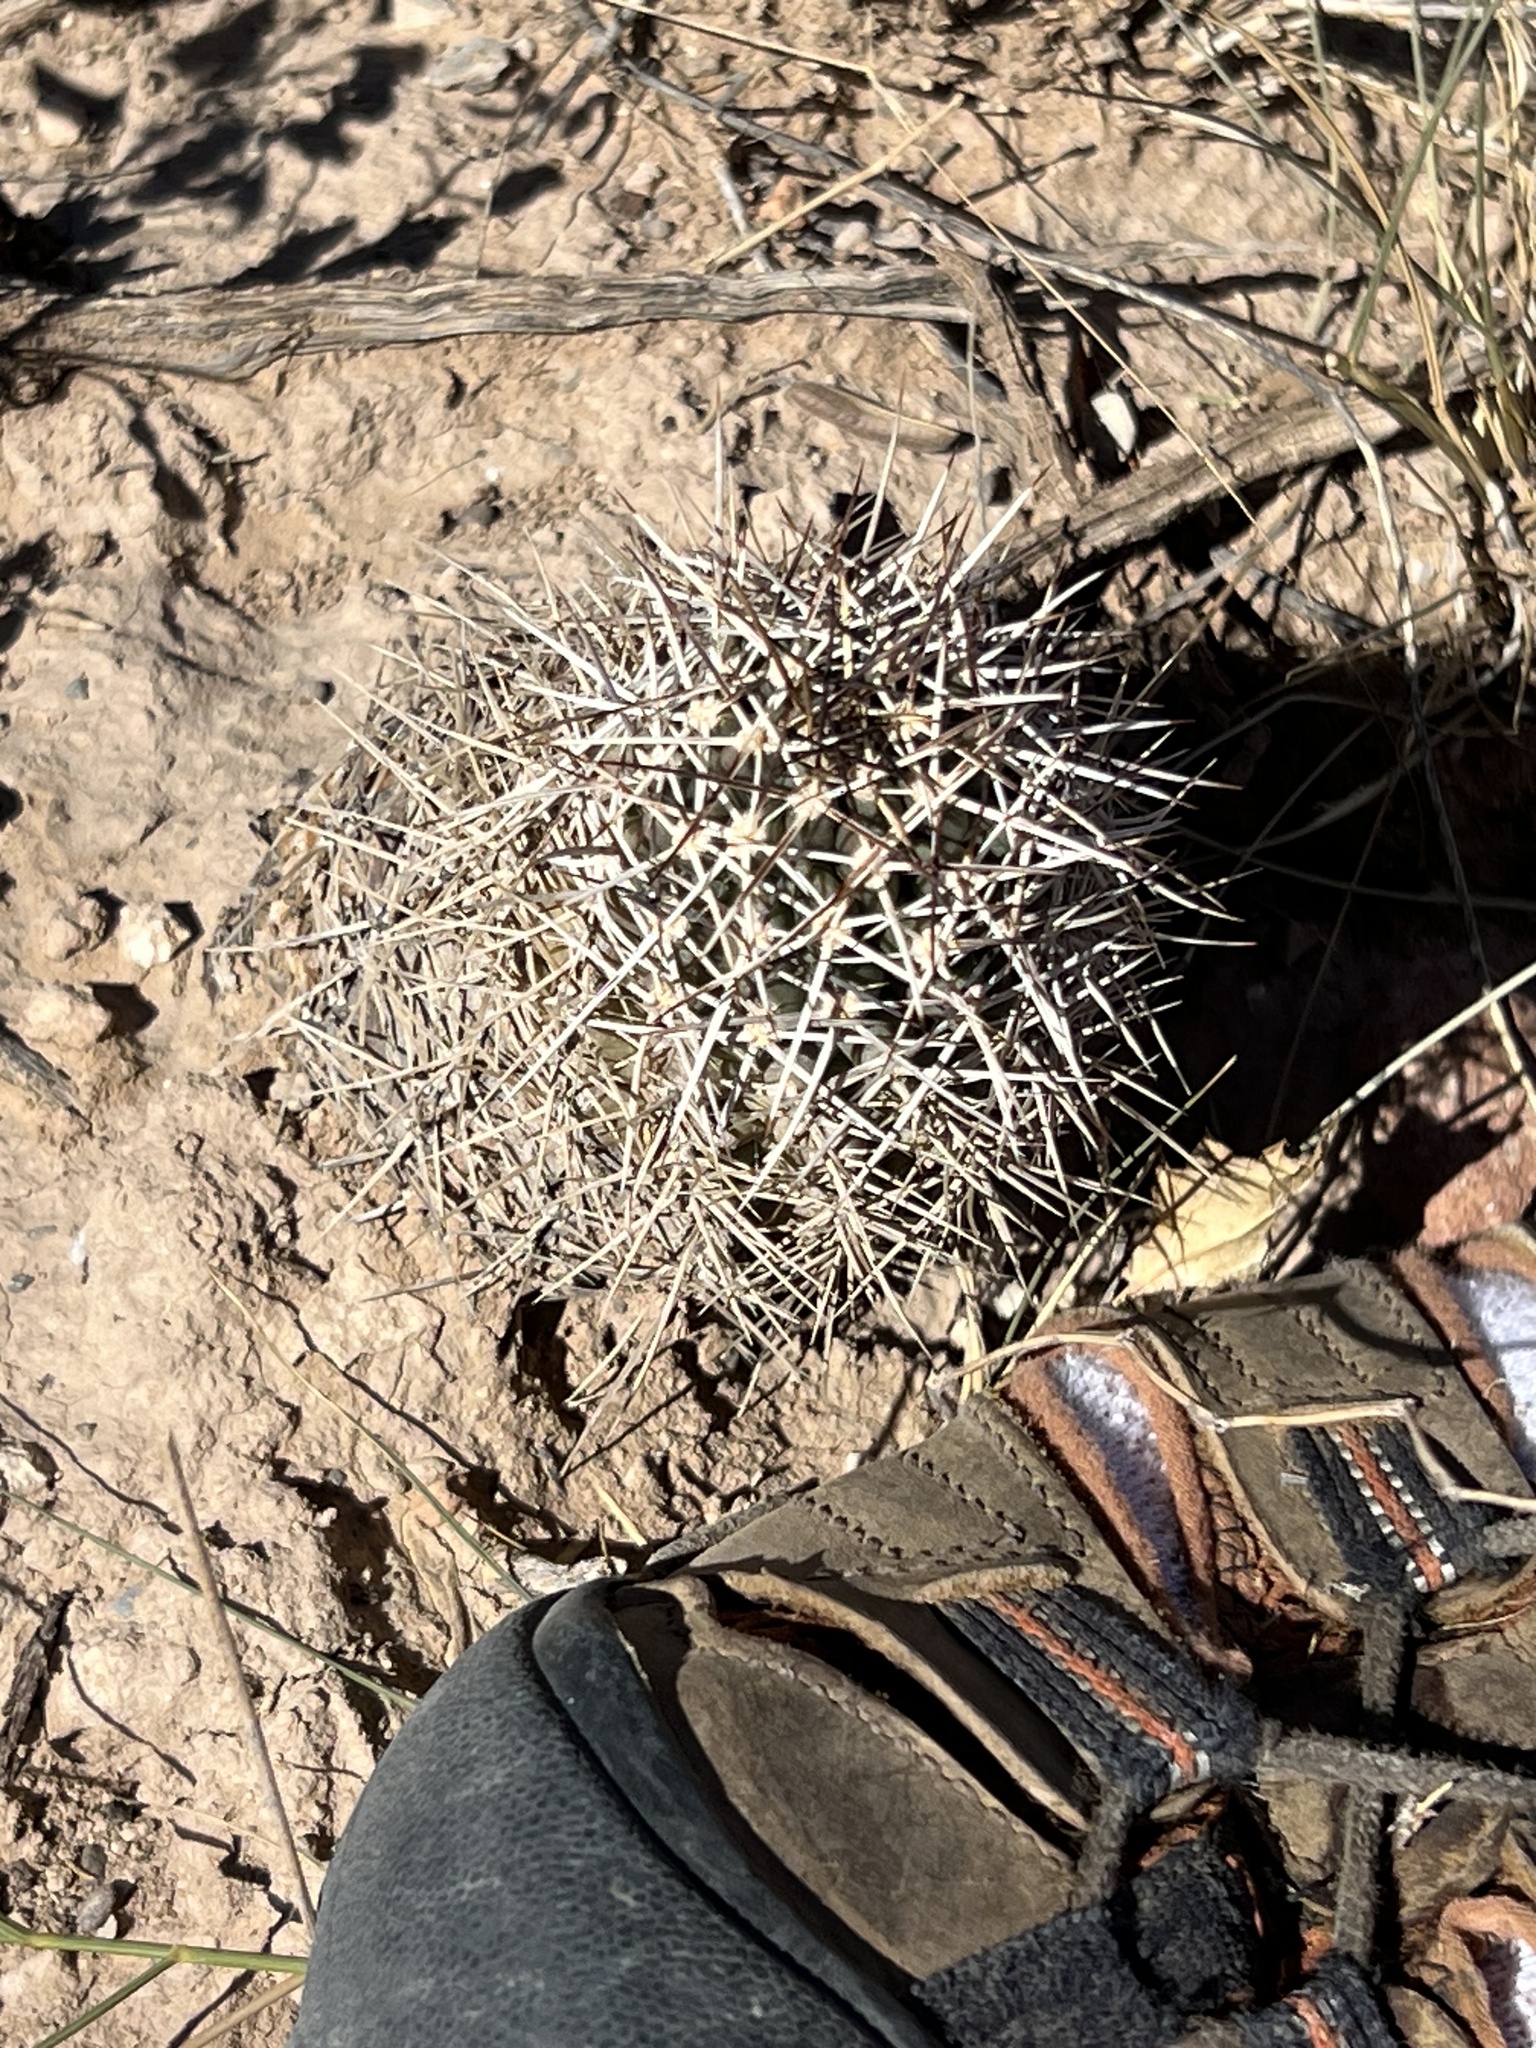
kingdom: Plantae
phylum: Tracheophyta
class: Magnoliopsida
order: Caryophyllales
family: Cactaceae
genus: Echinocereus
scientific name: Echinocereus fendleri
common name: Fendler's hedgehog cactus
